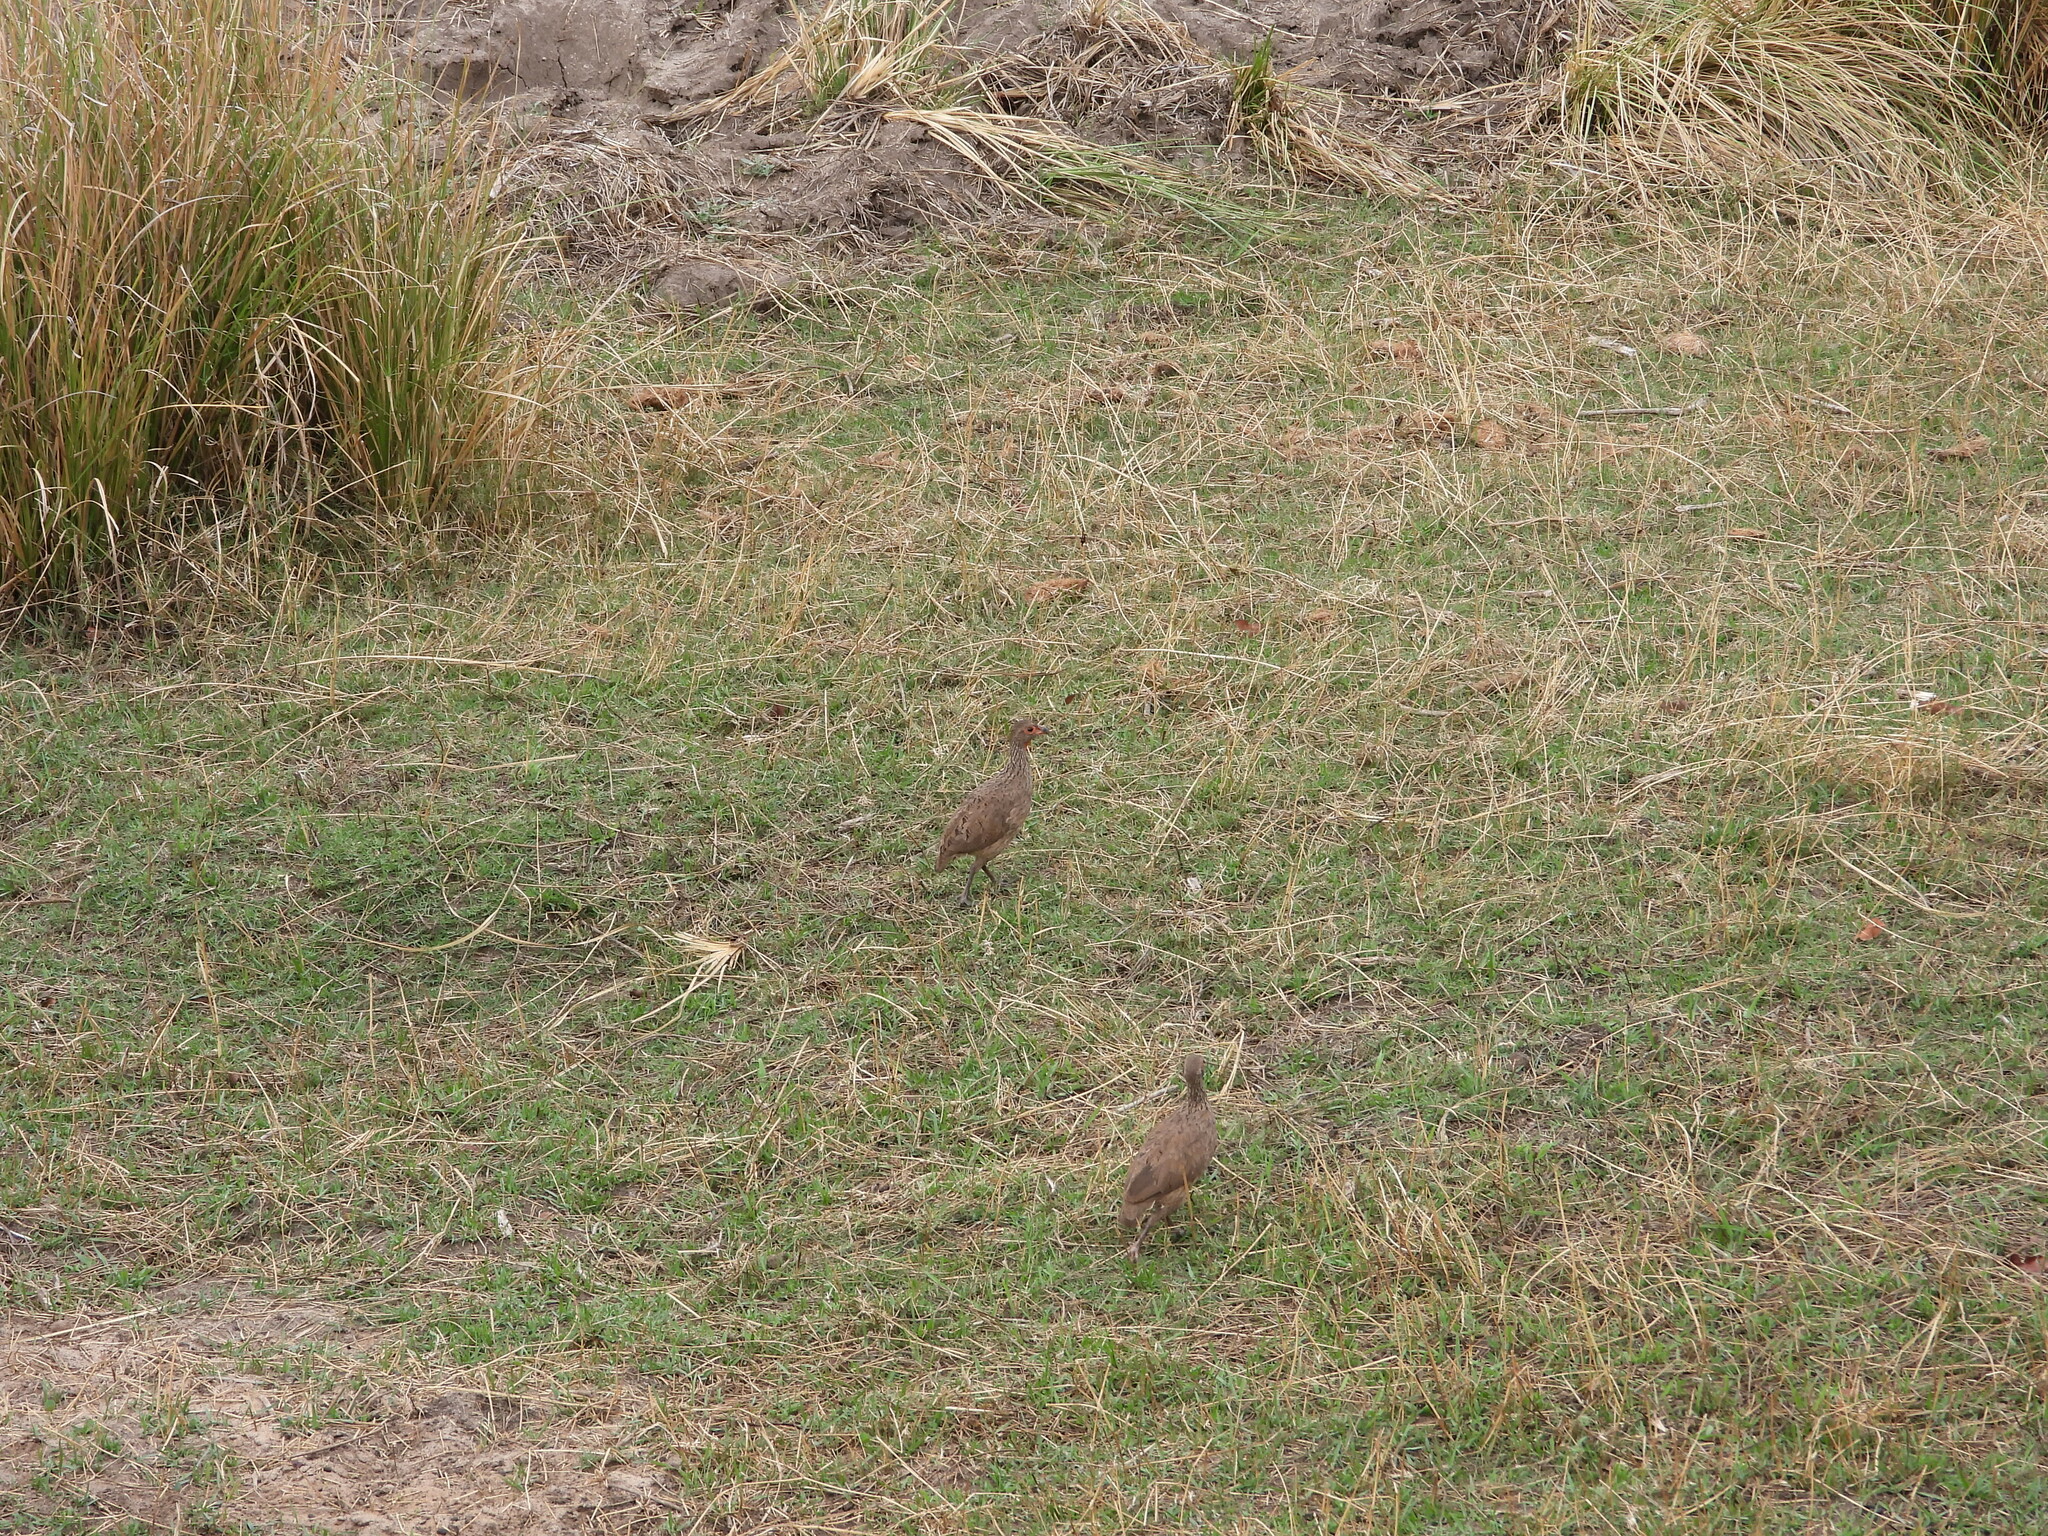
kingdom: Animalia
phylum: Chordata
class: Aves
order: Galliformes
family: Phasianidae
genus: Pternistis
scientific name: Pternistis swainsonii
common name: Swainson's spurfowl
